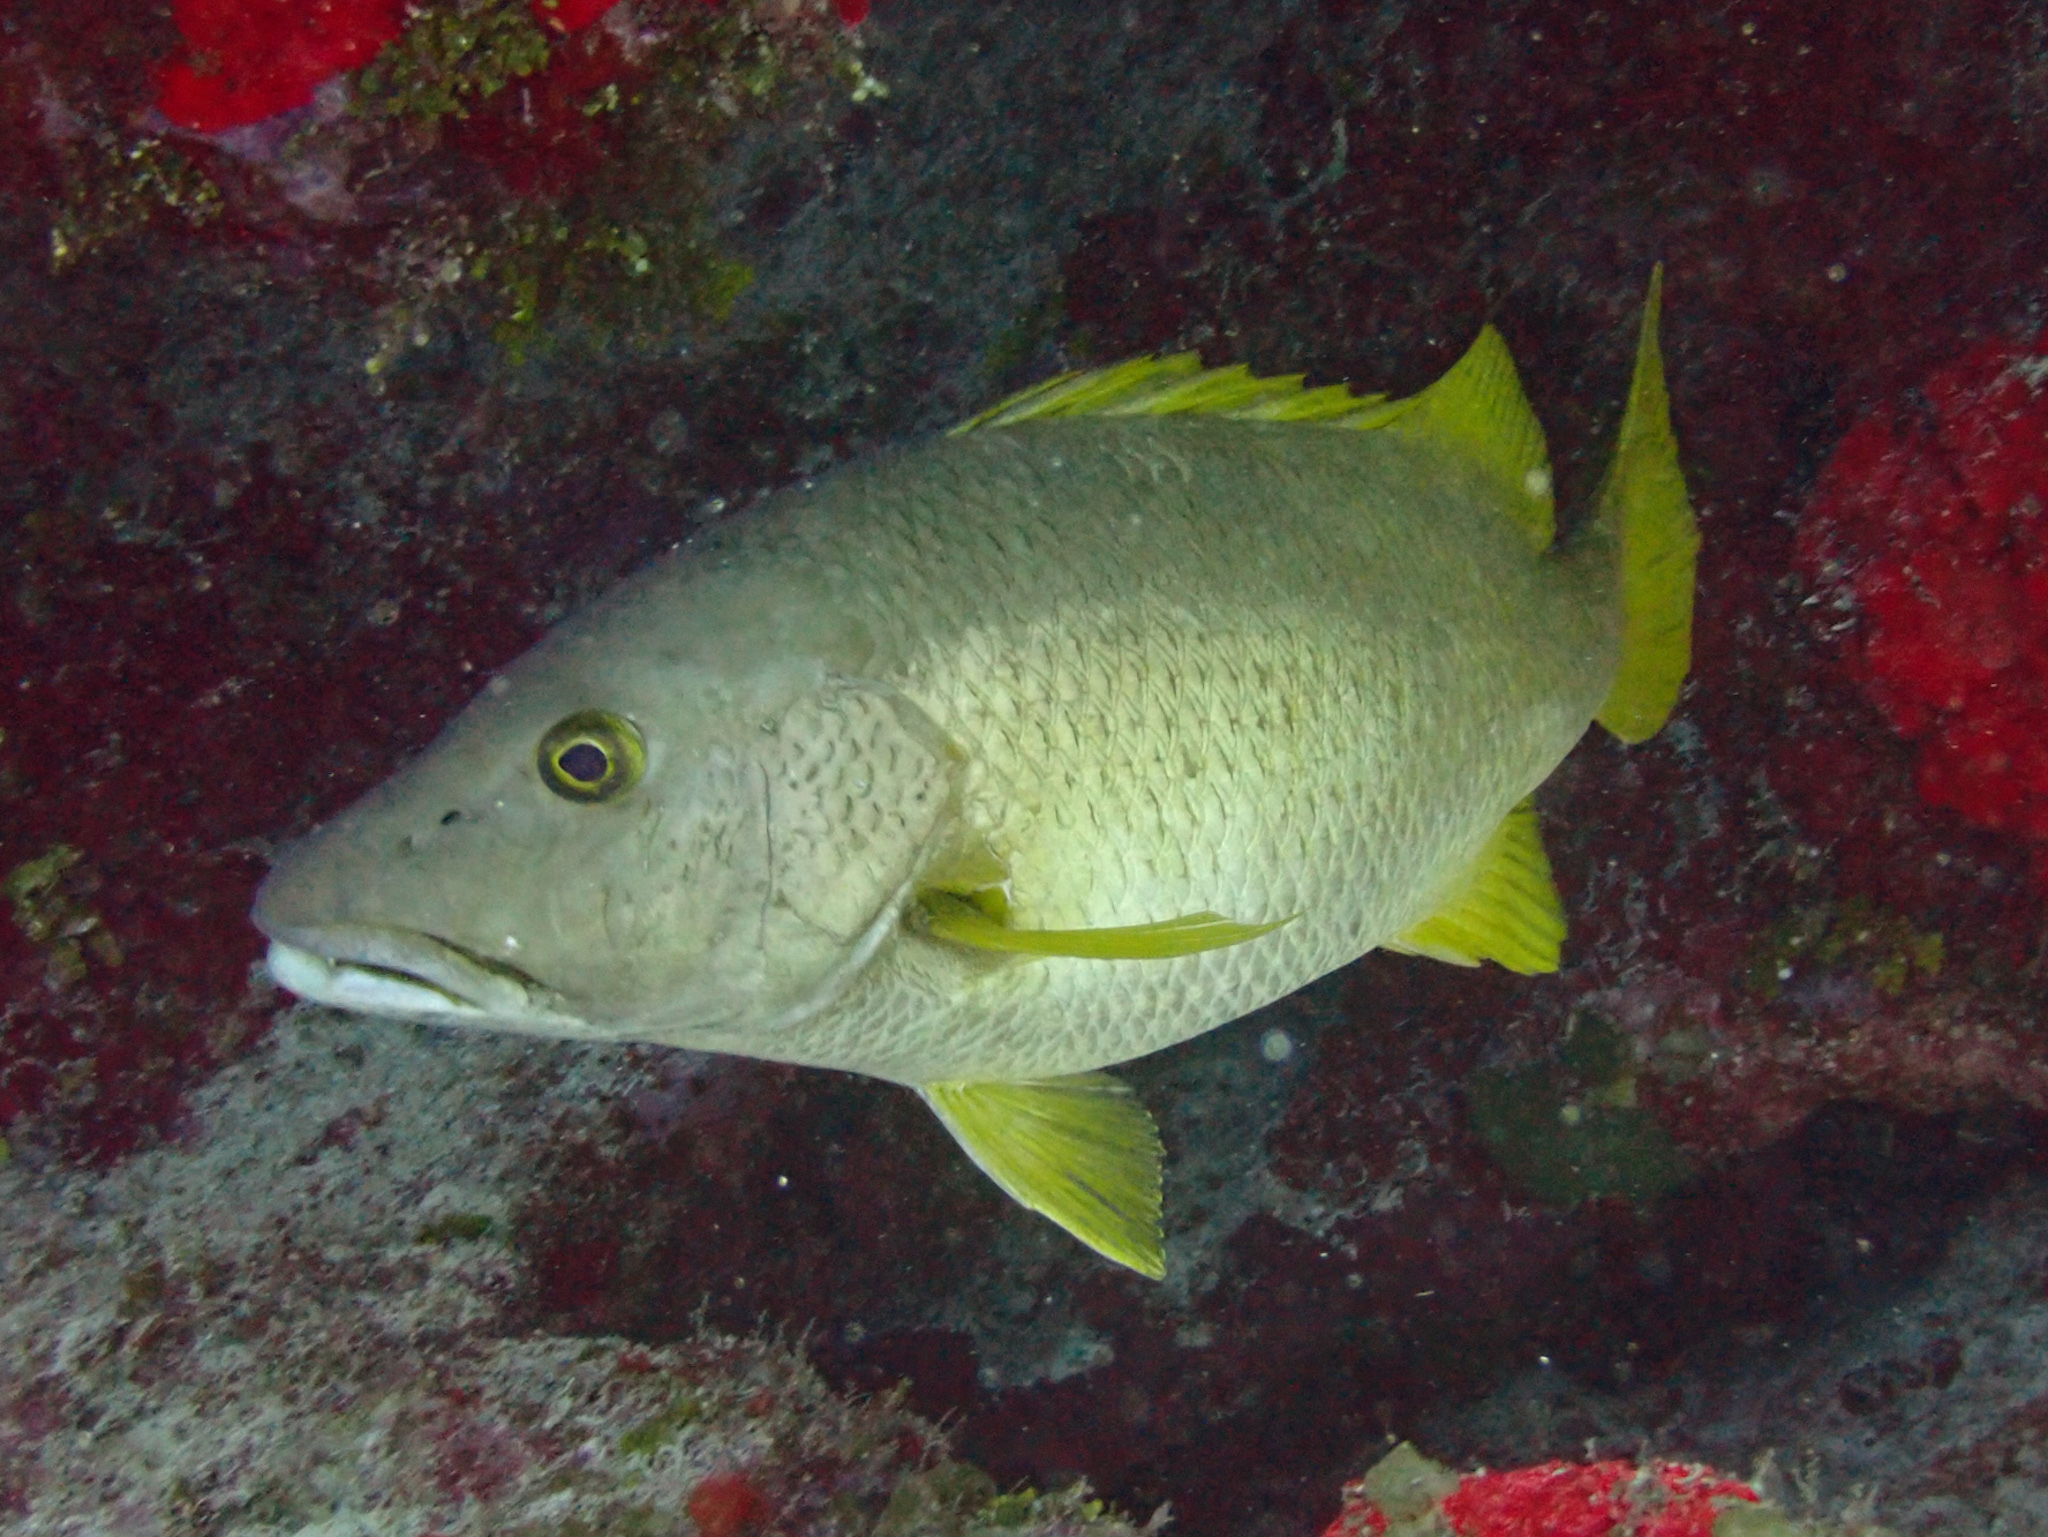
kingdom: Animalia
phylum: Chordata
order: Perciformes
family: Lutjanidae
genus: Lutjanus
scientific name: Lutjanus apodus
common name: Schoolmaster
